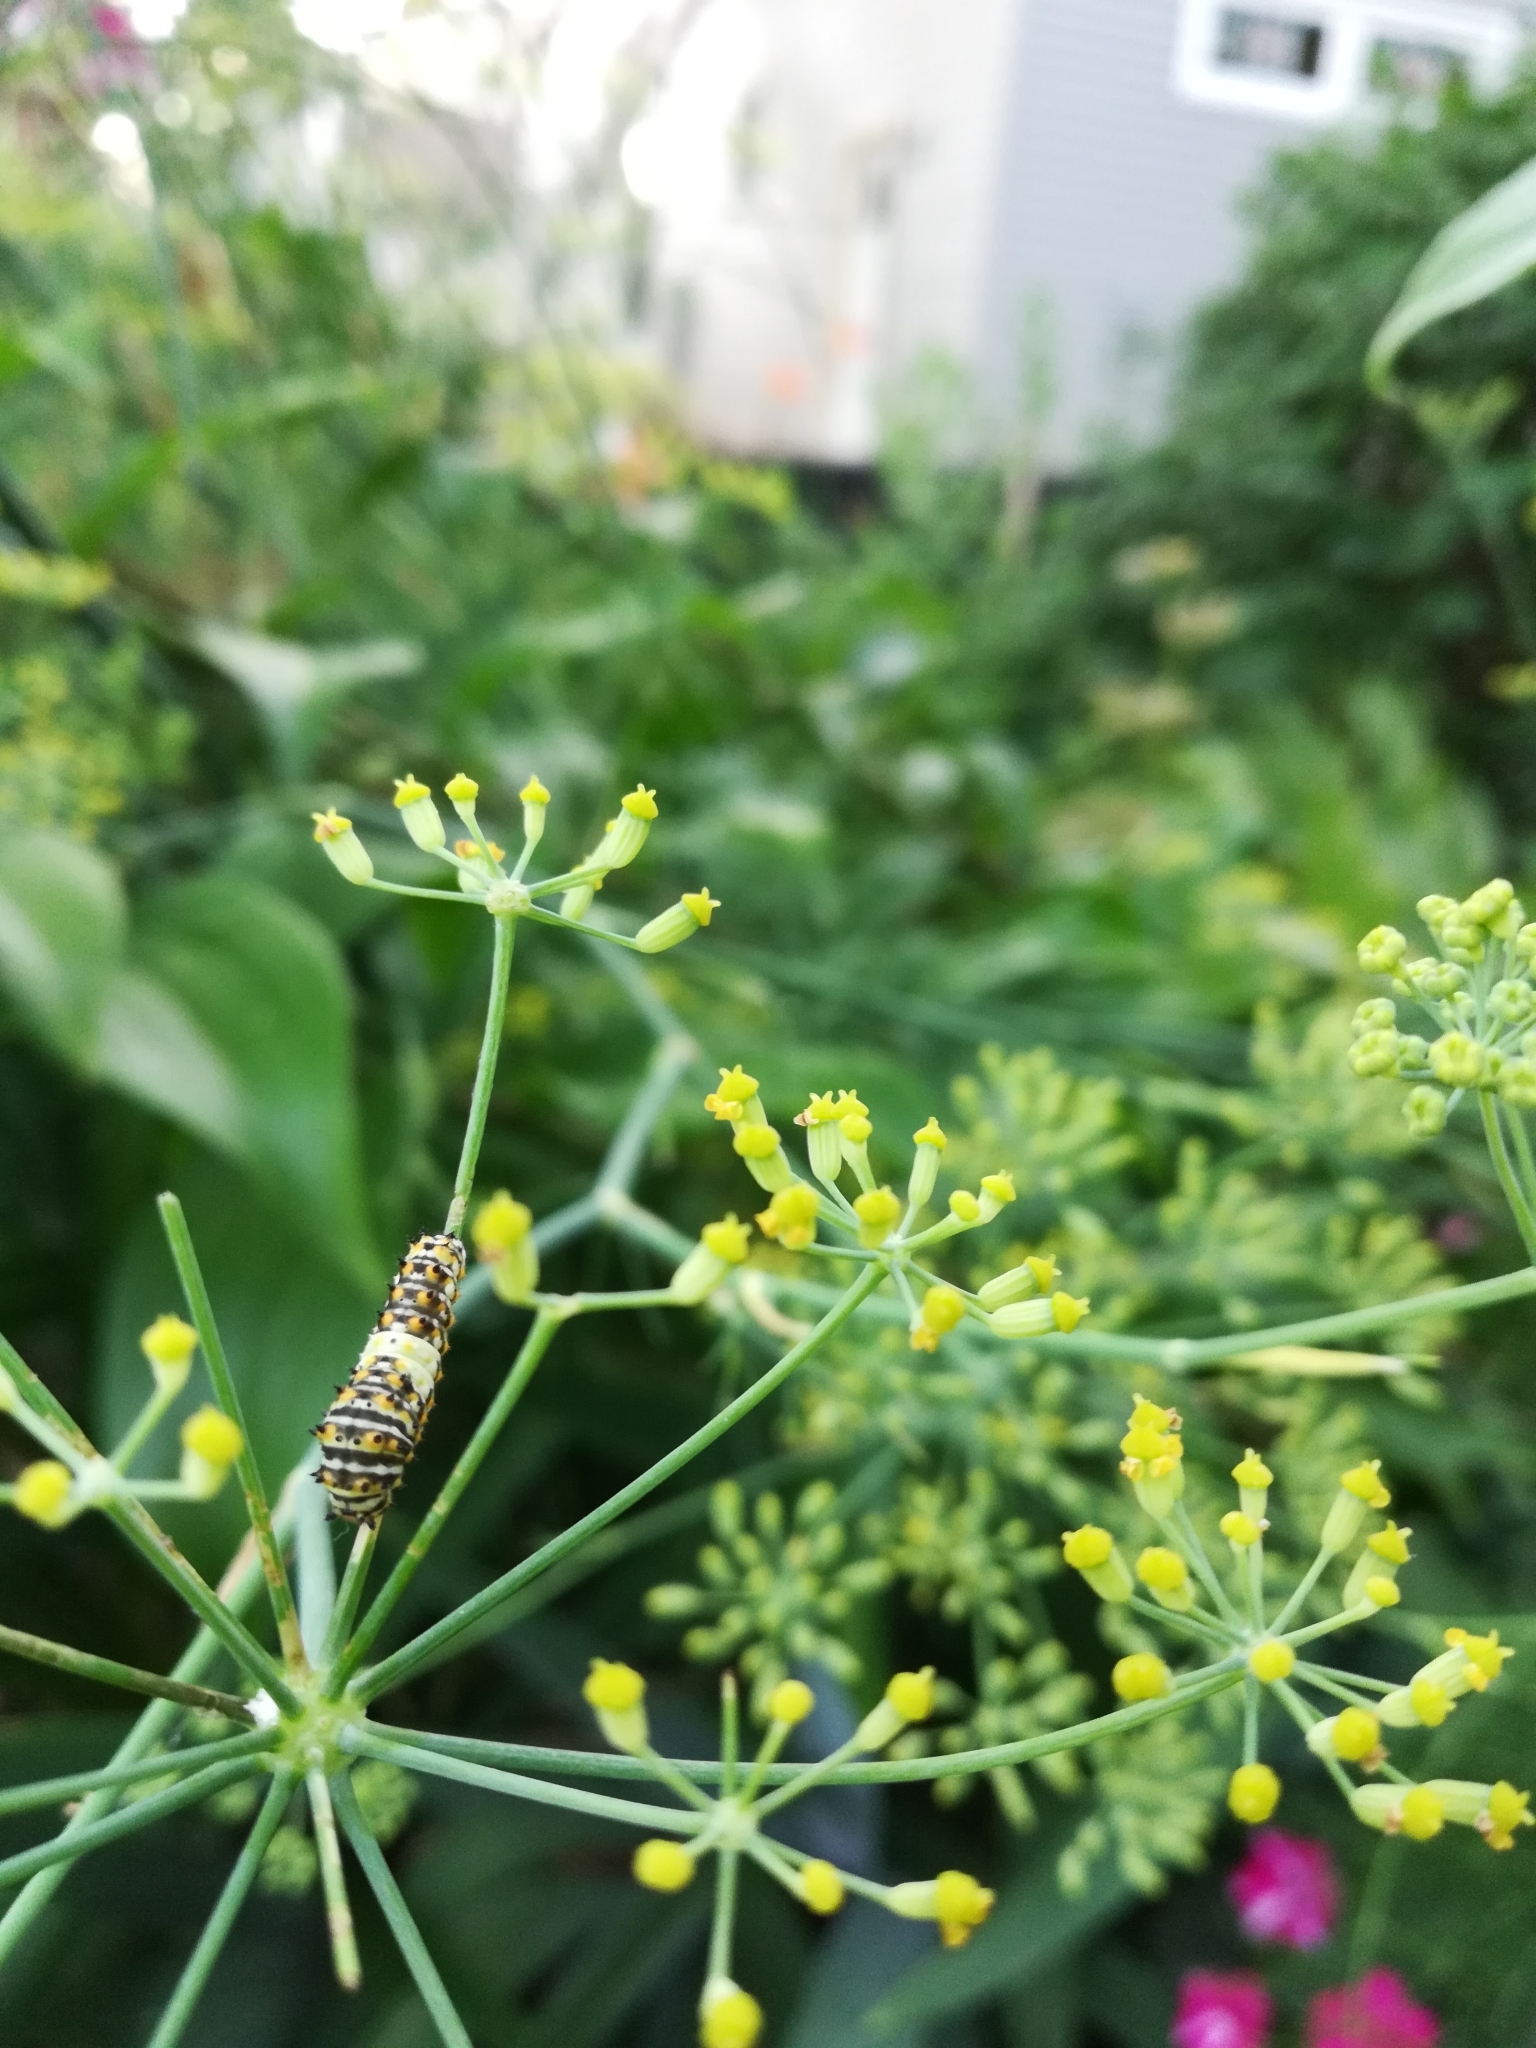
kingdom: Animalia
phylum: Arthropoda
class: Insecta
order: Lepidoptera
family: Papilionidae
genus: Papilio
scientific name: Papilio polyxenes
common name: Black swallowtail
